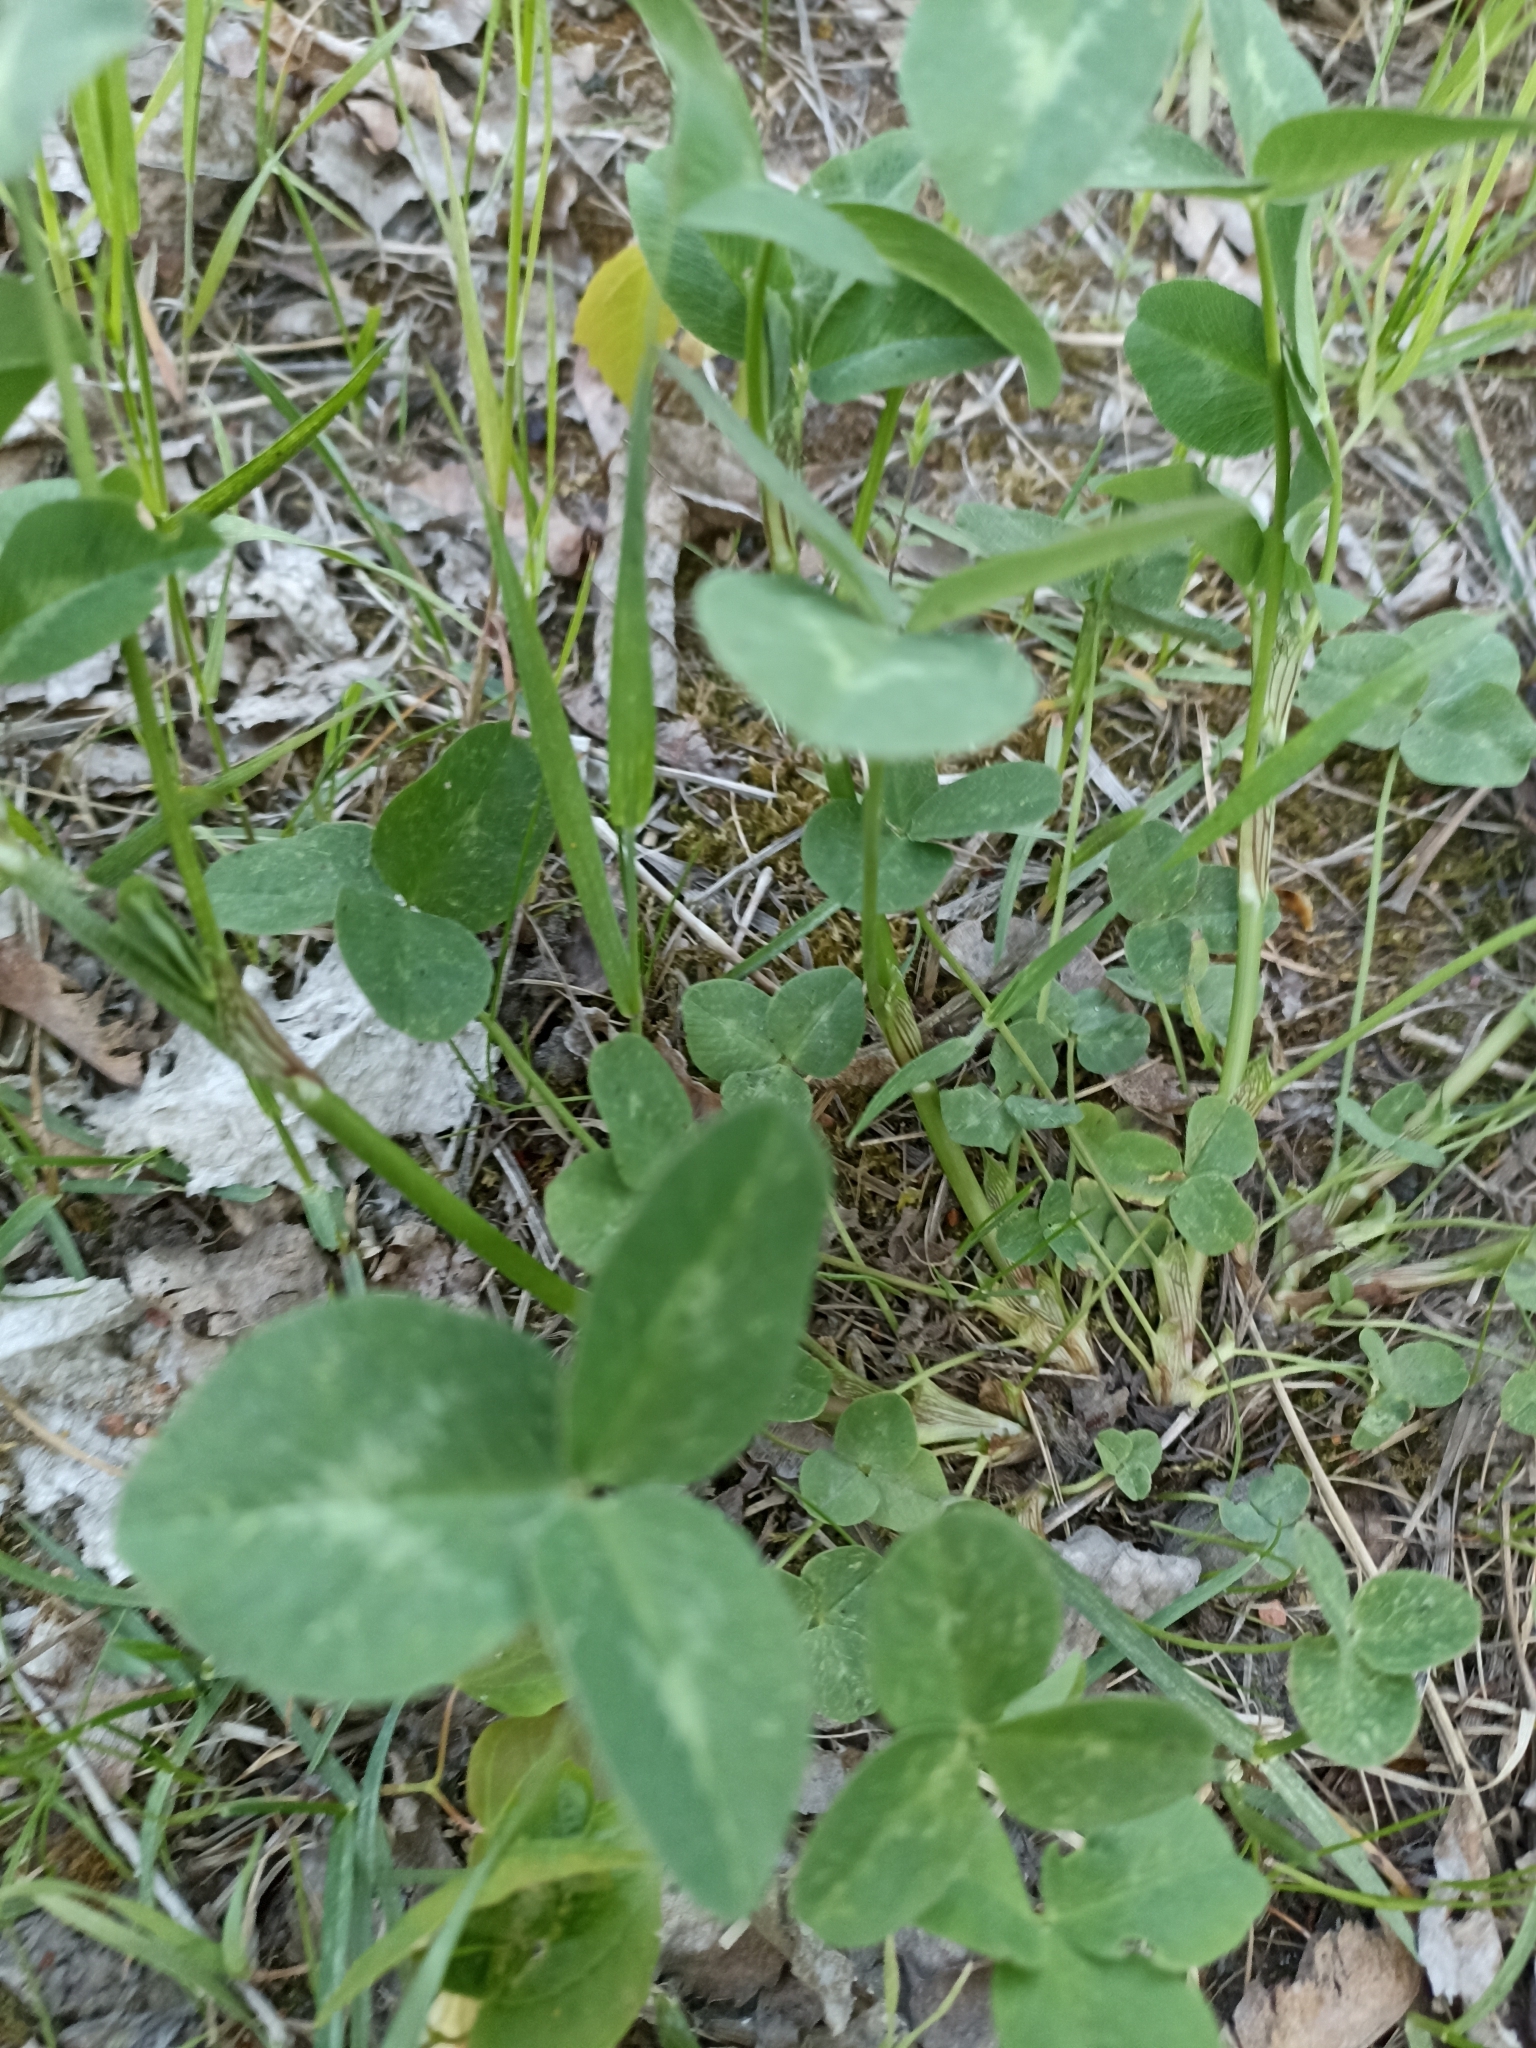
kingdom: Plantae
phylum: Tracheophyta
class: Magnoliopsida
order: Fabales
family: Fabaceae
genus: Trifolium
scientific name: Trifolium pratense
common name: Red clover
